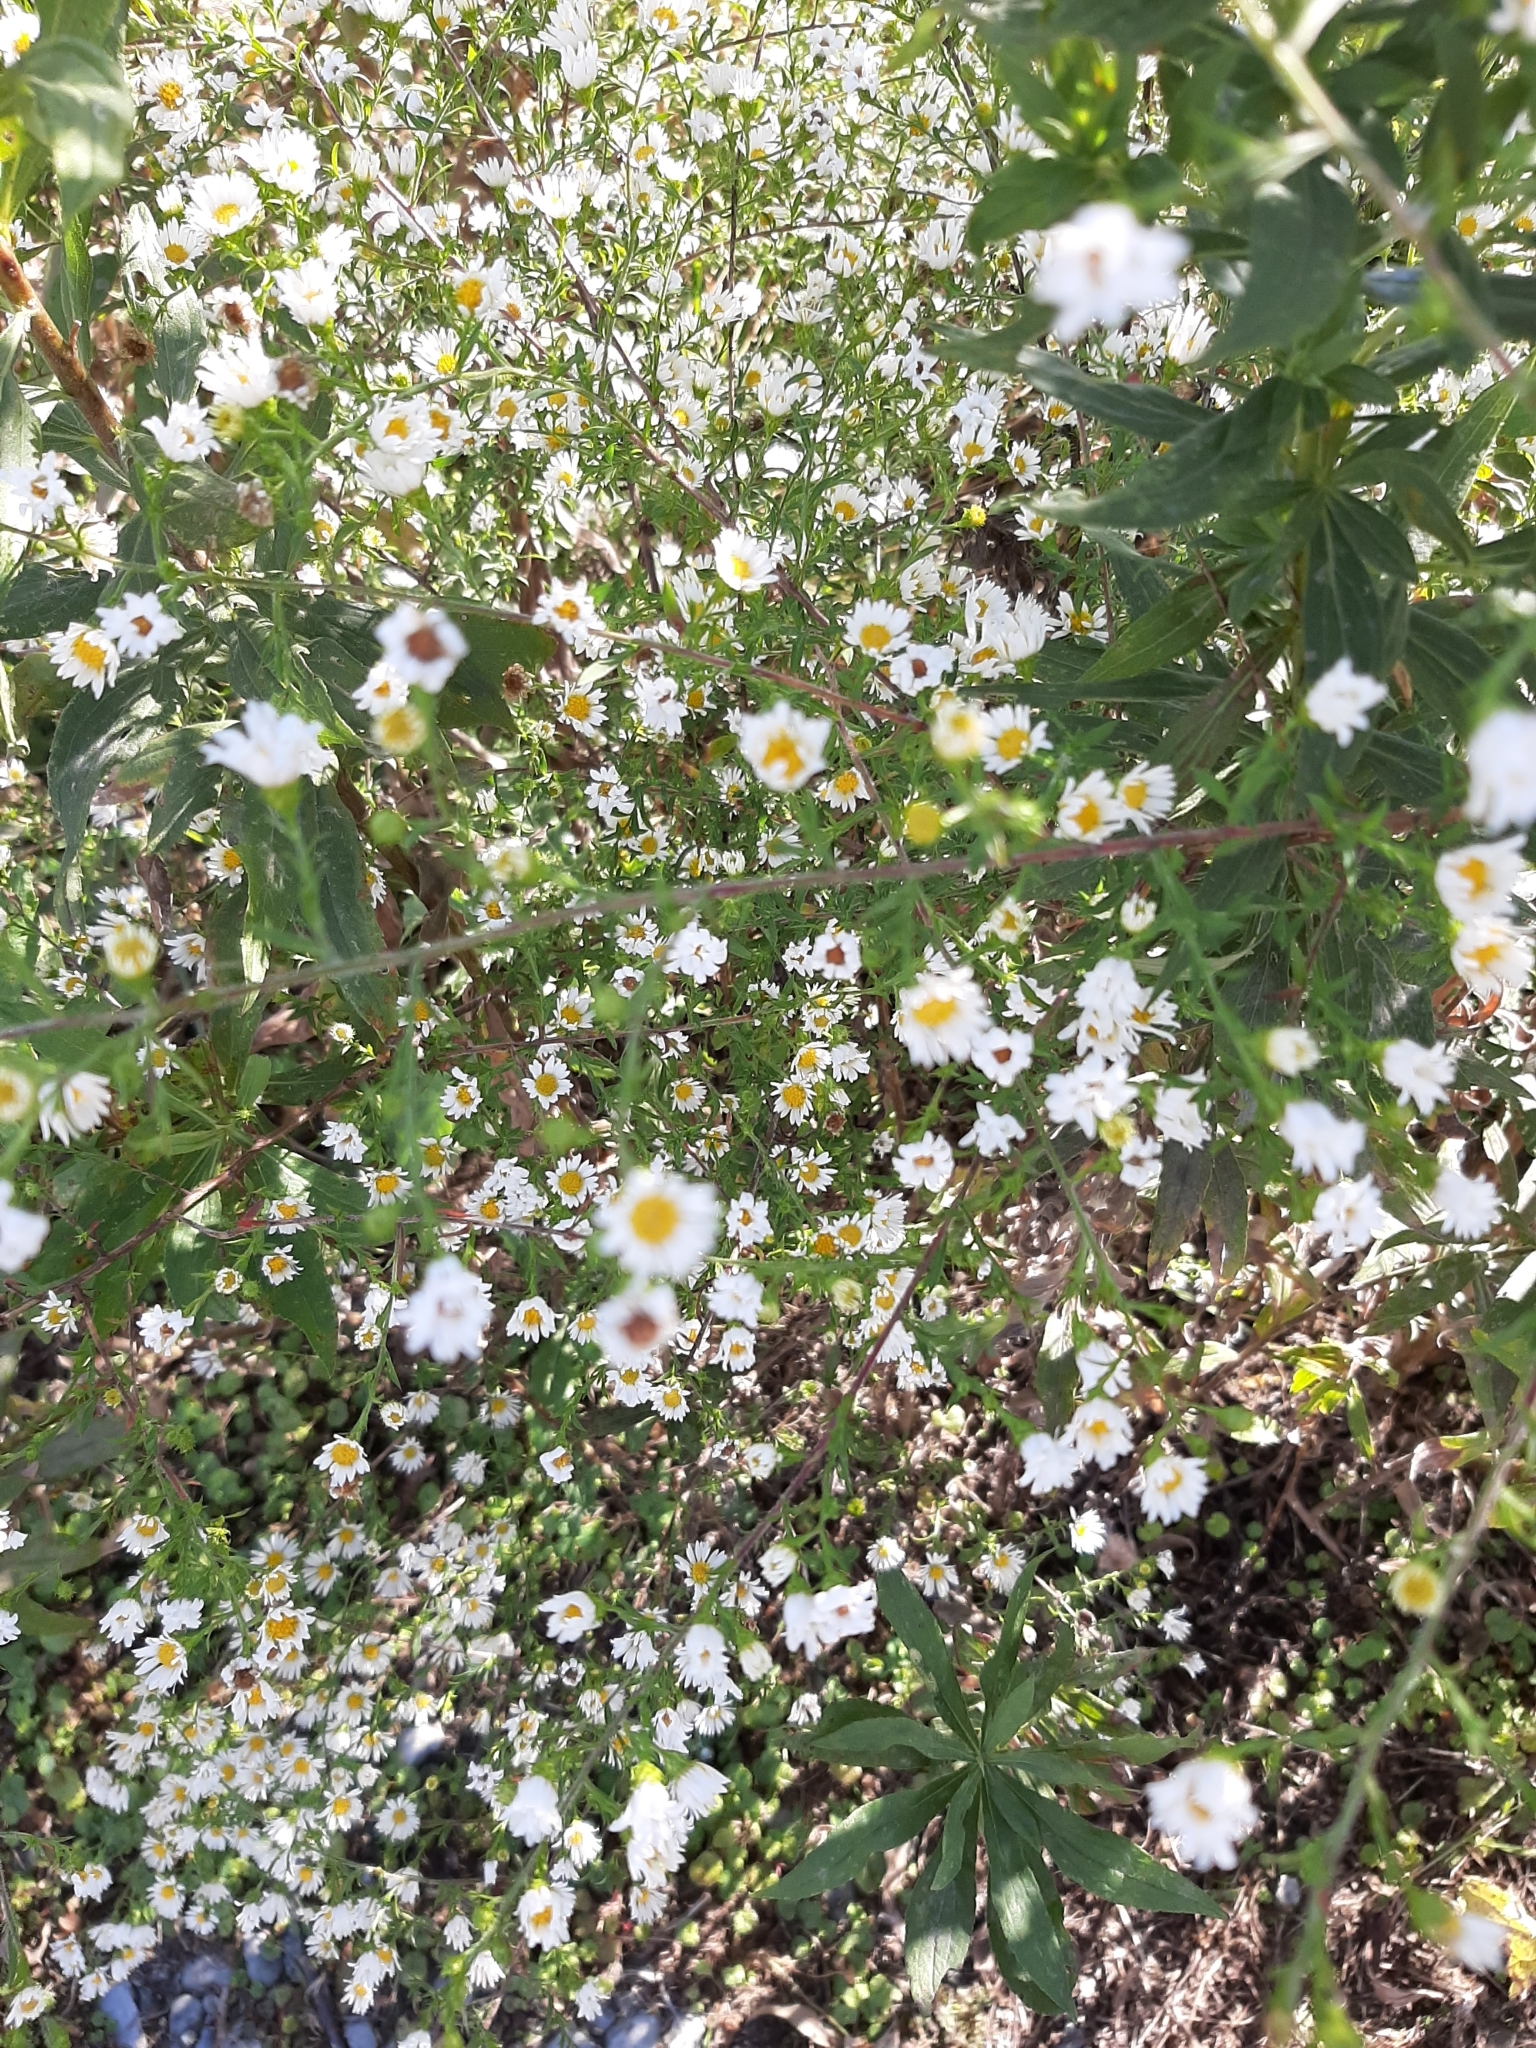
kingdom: Plantae
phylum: Tracheophyta
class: Magnoliopsida
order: Asterales
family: Asteraceae
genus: Symphyotrichum
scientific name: Symphyotrichum pilosum
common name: Awl aster
